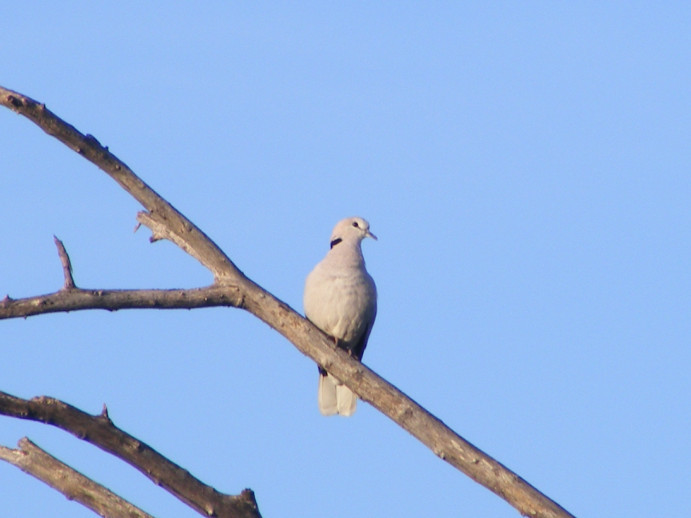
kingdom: Animalia
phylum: Chordata
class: Aves
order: Columbiformes
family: Columbidae
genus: Streptopelia
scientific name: Streptopelia capicola
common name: Ring-necked dove
